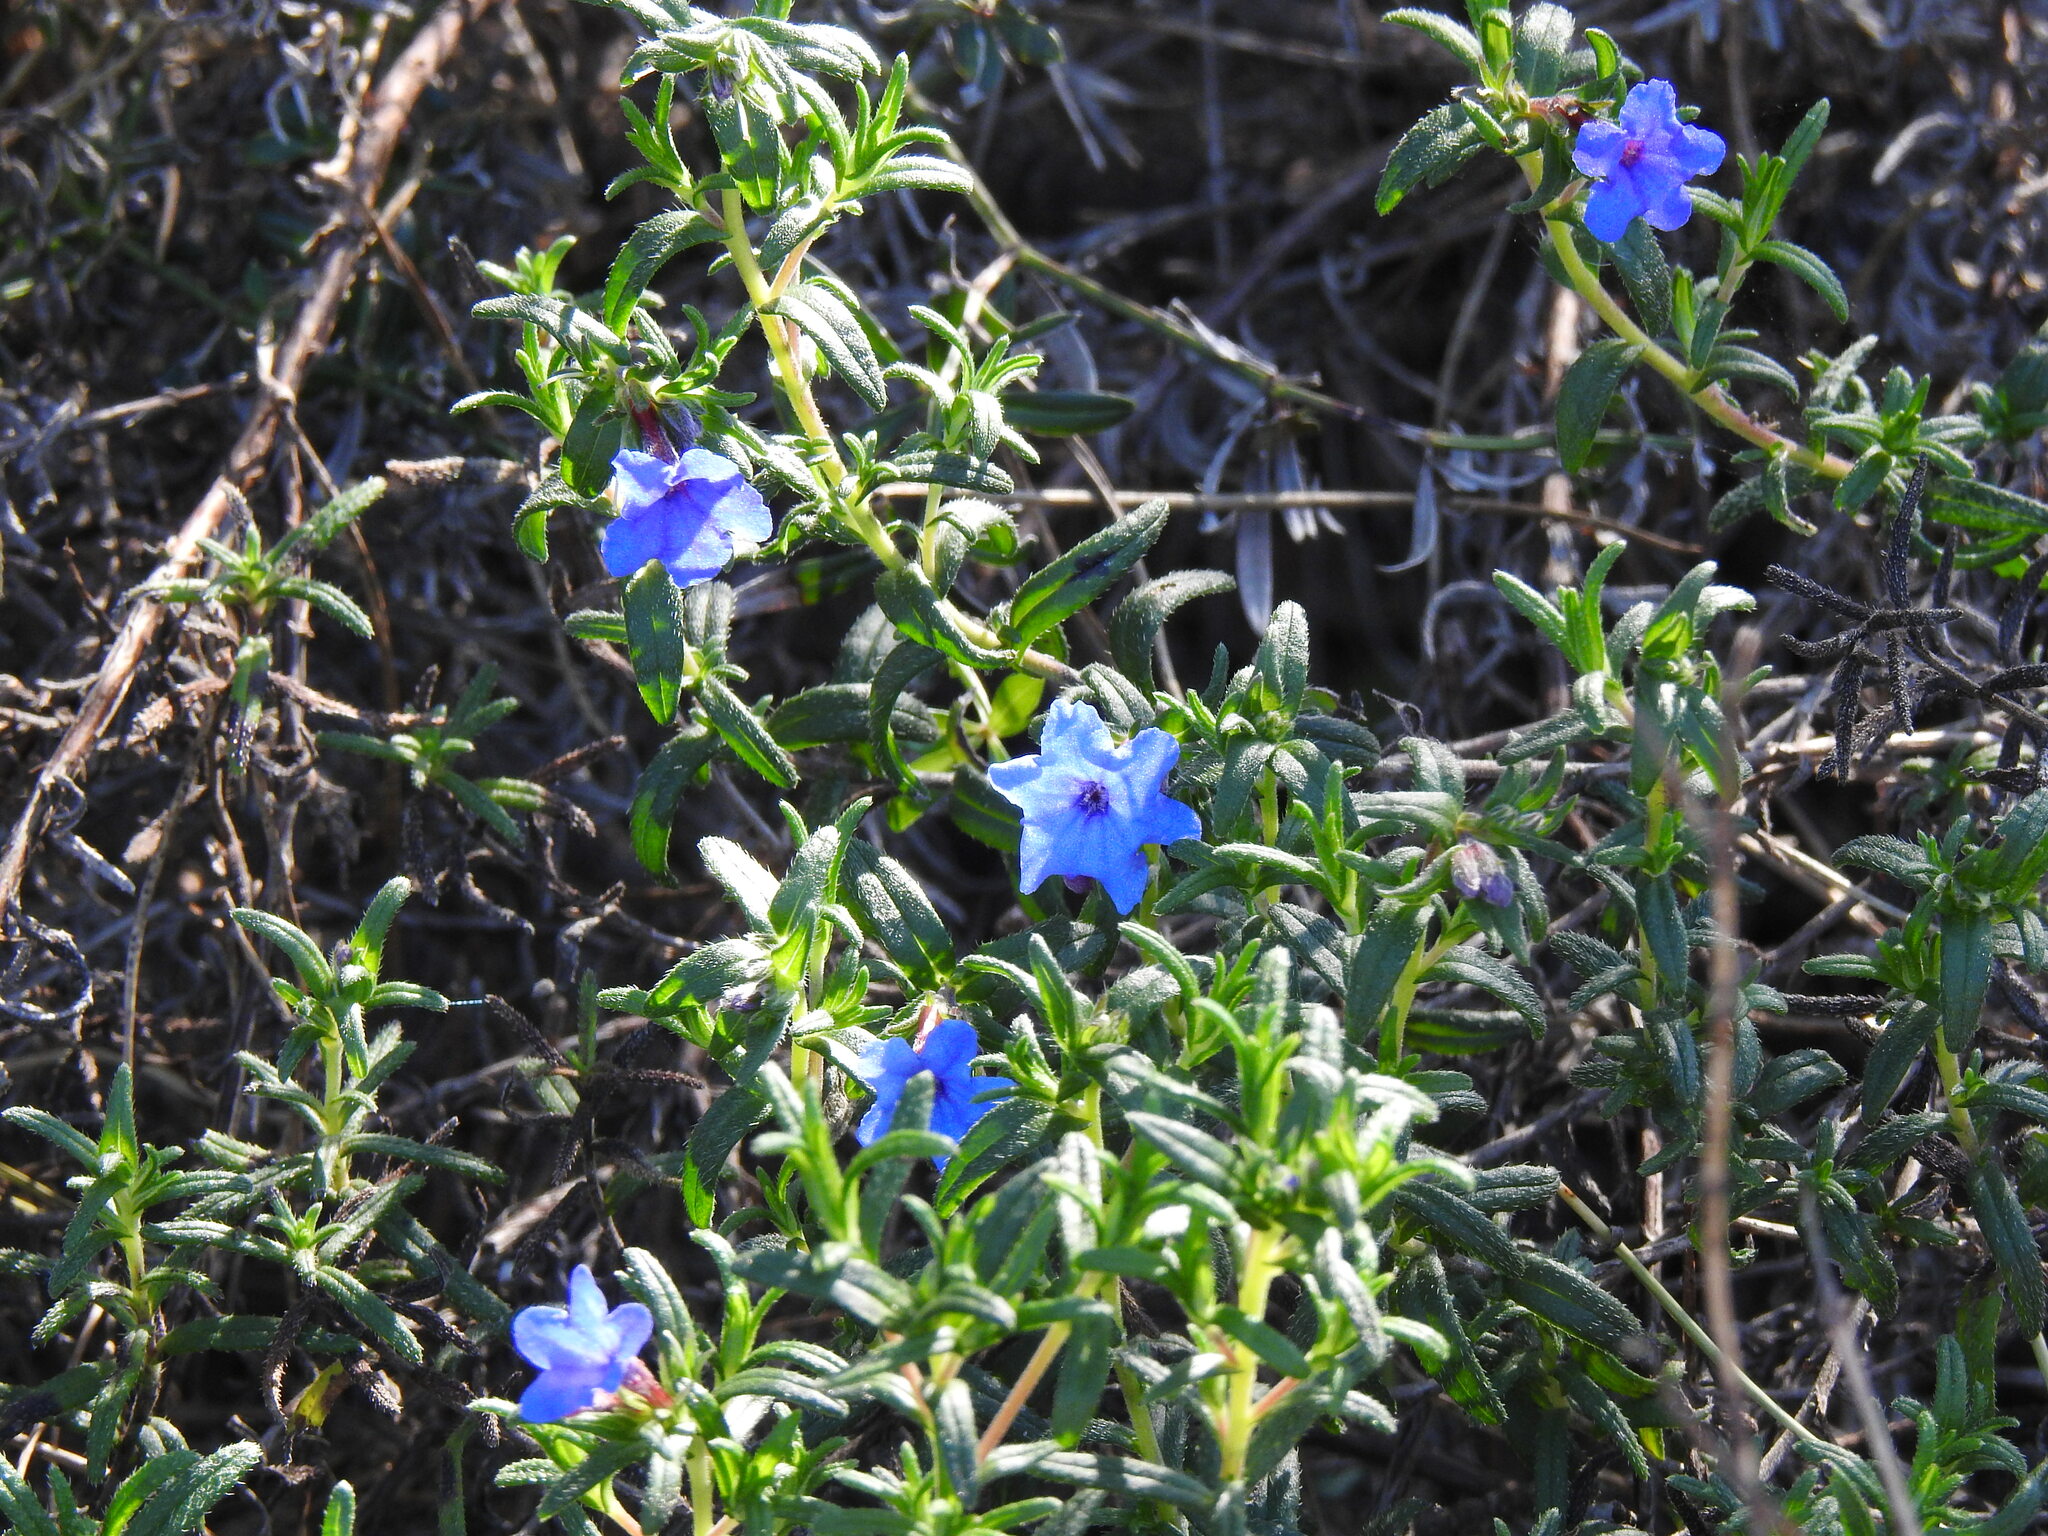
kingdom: Plantae
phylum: Tracheophyta
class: Magnoliopsida
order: Boraginales
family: Boraginaceae
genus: Glandora
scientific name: Glandora prostrata
